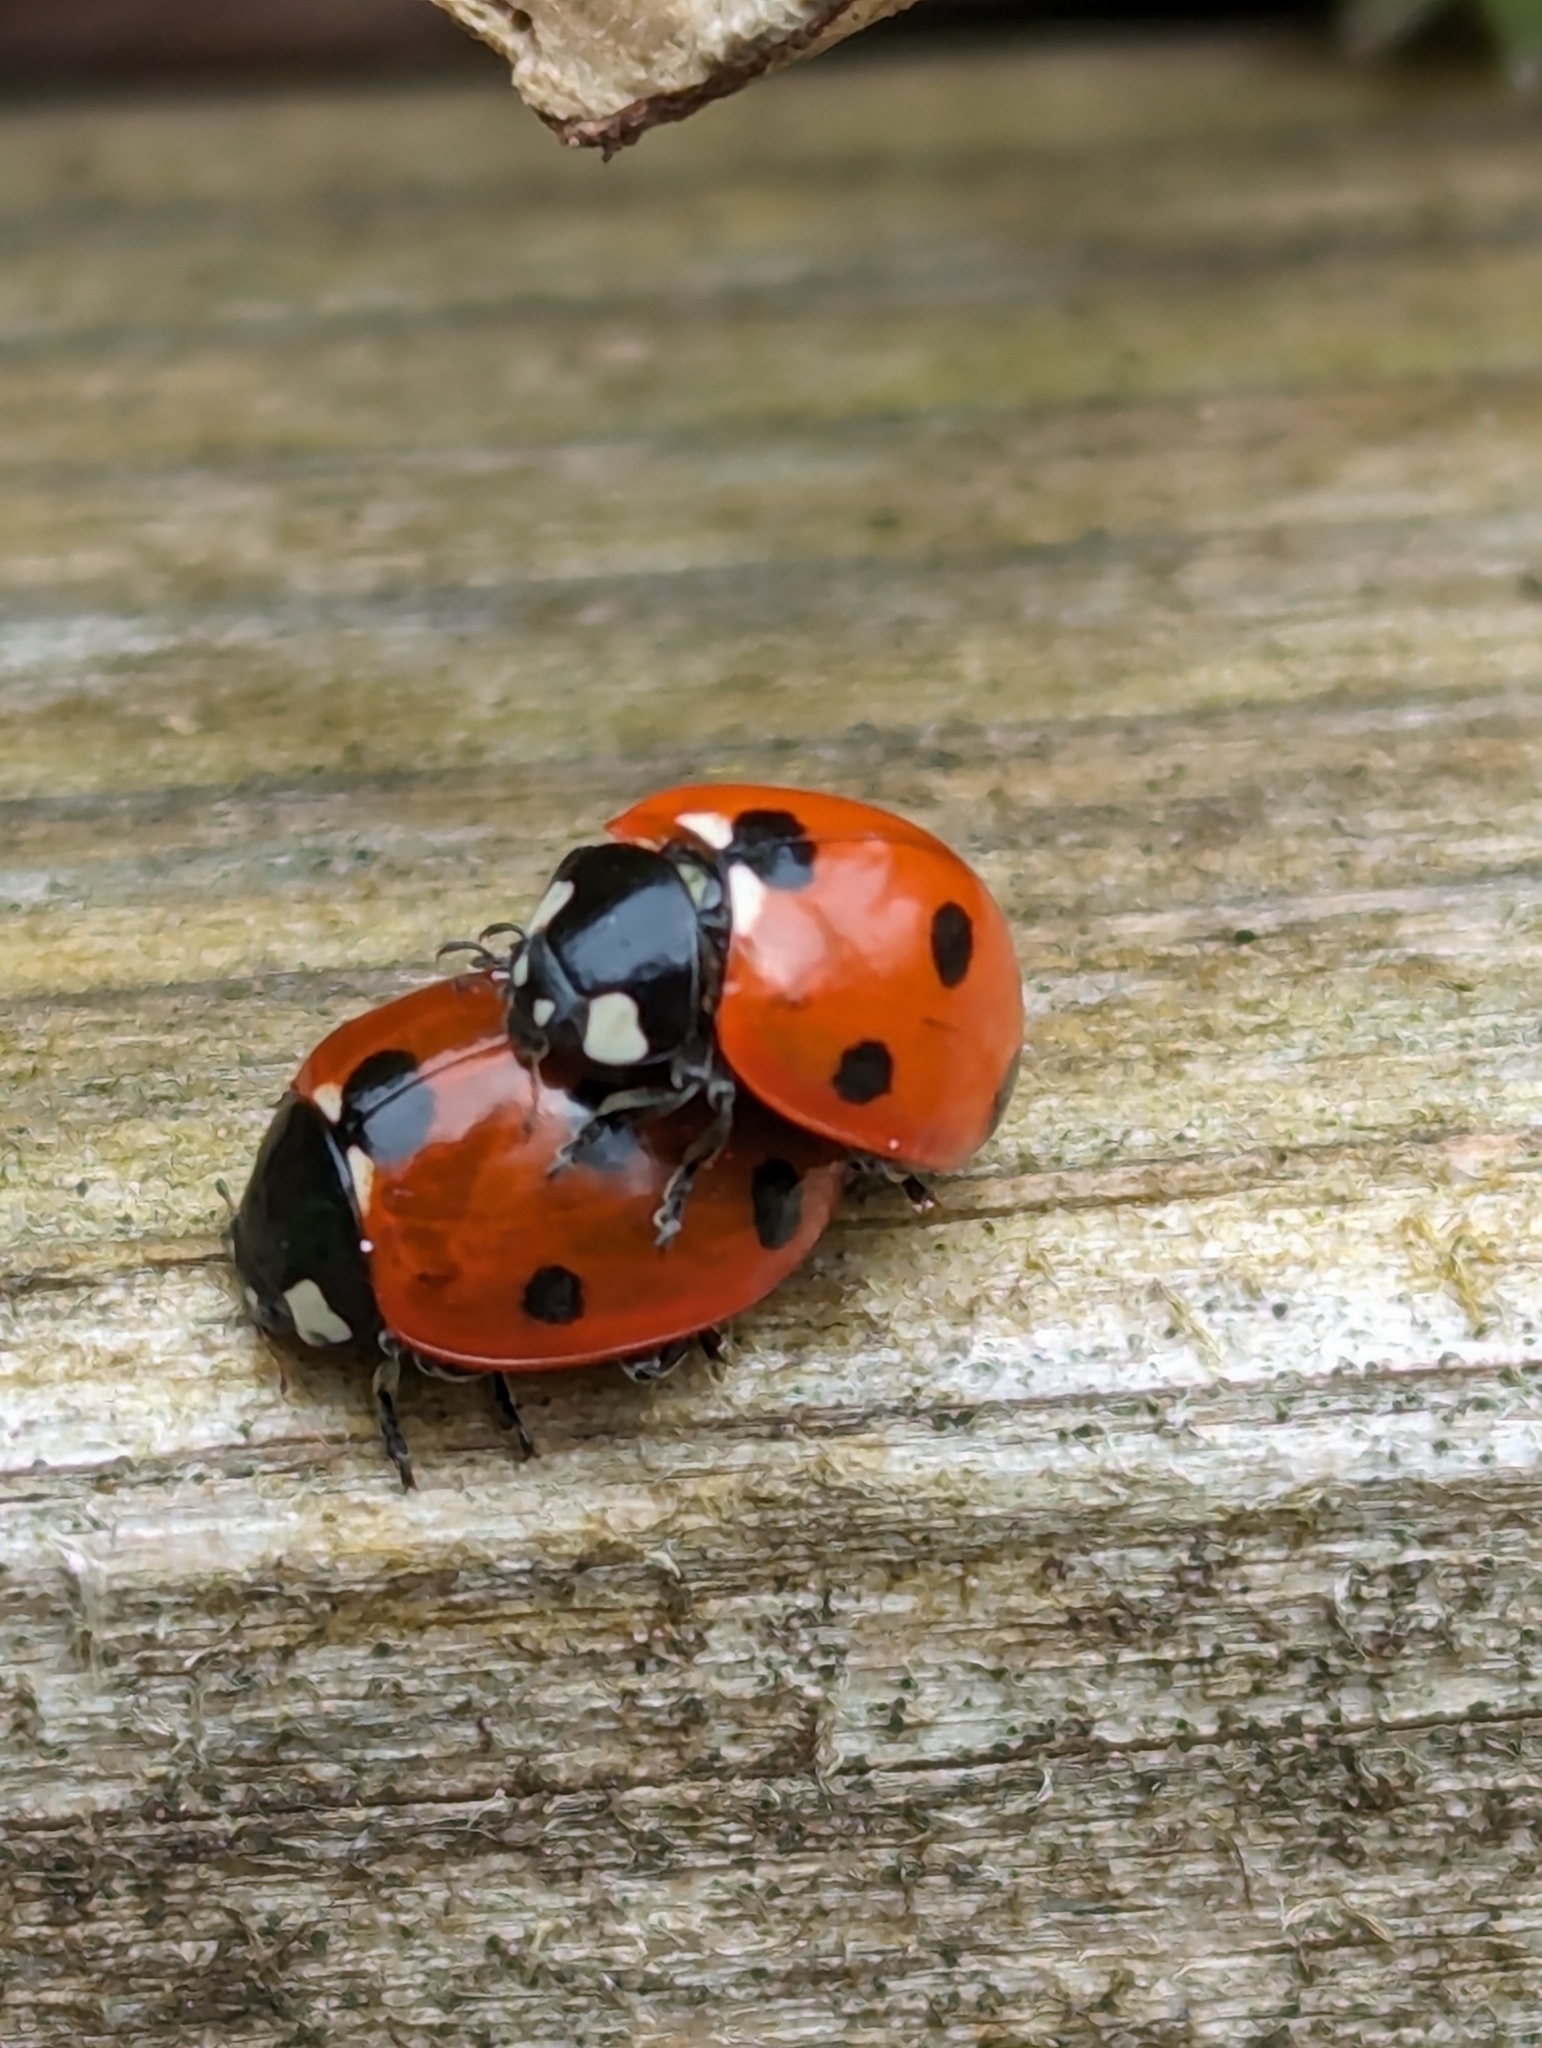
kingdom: Animalia
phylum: Arthropoda
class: Insecta
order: Coleoptera
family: Coccinellidae
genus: Coccinella
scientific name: Coccinella septempunctata
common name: Sevenspotted lady beetle
